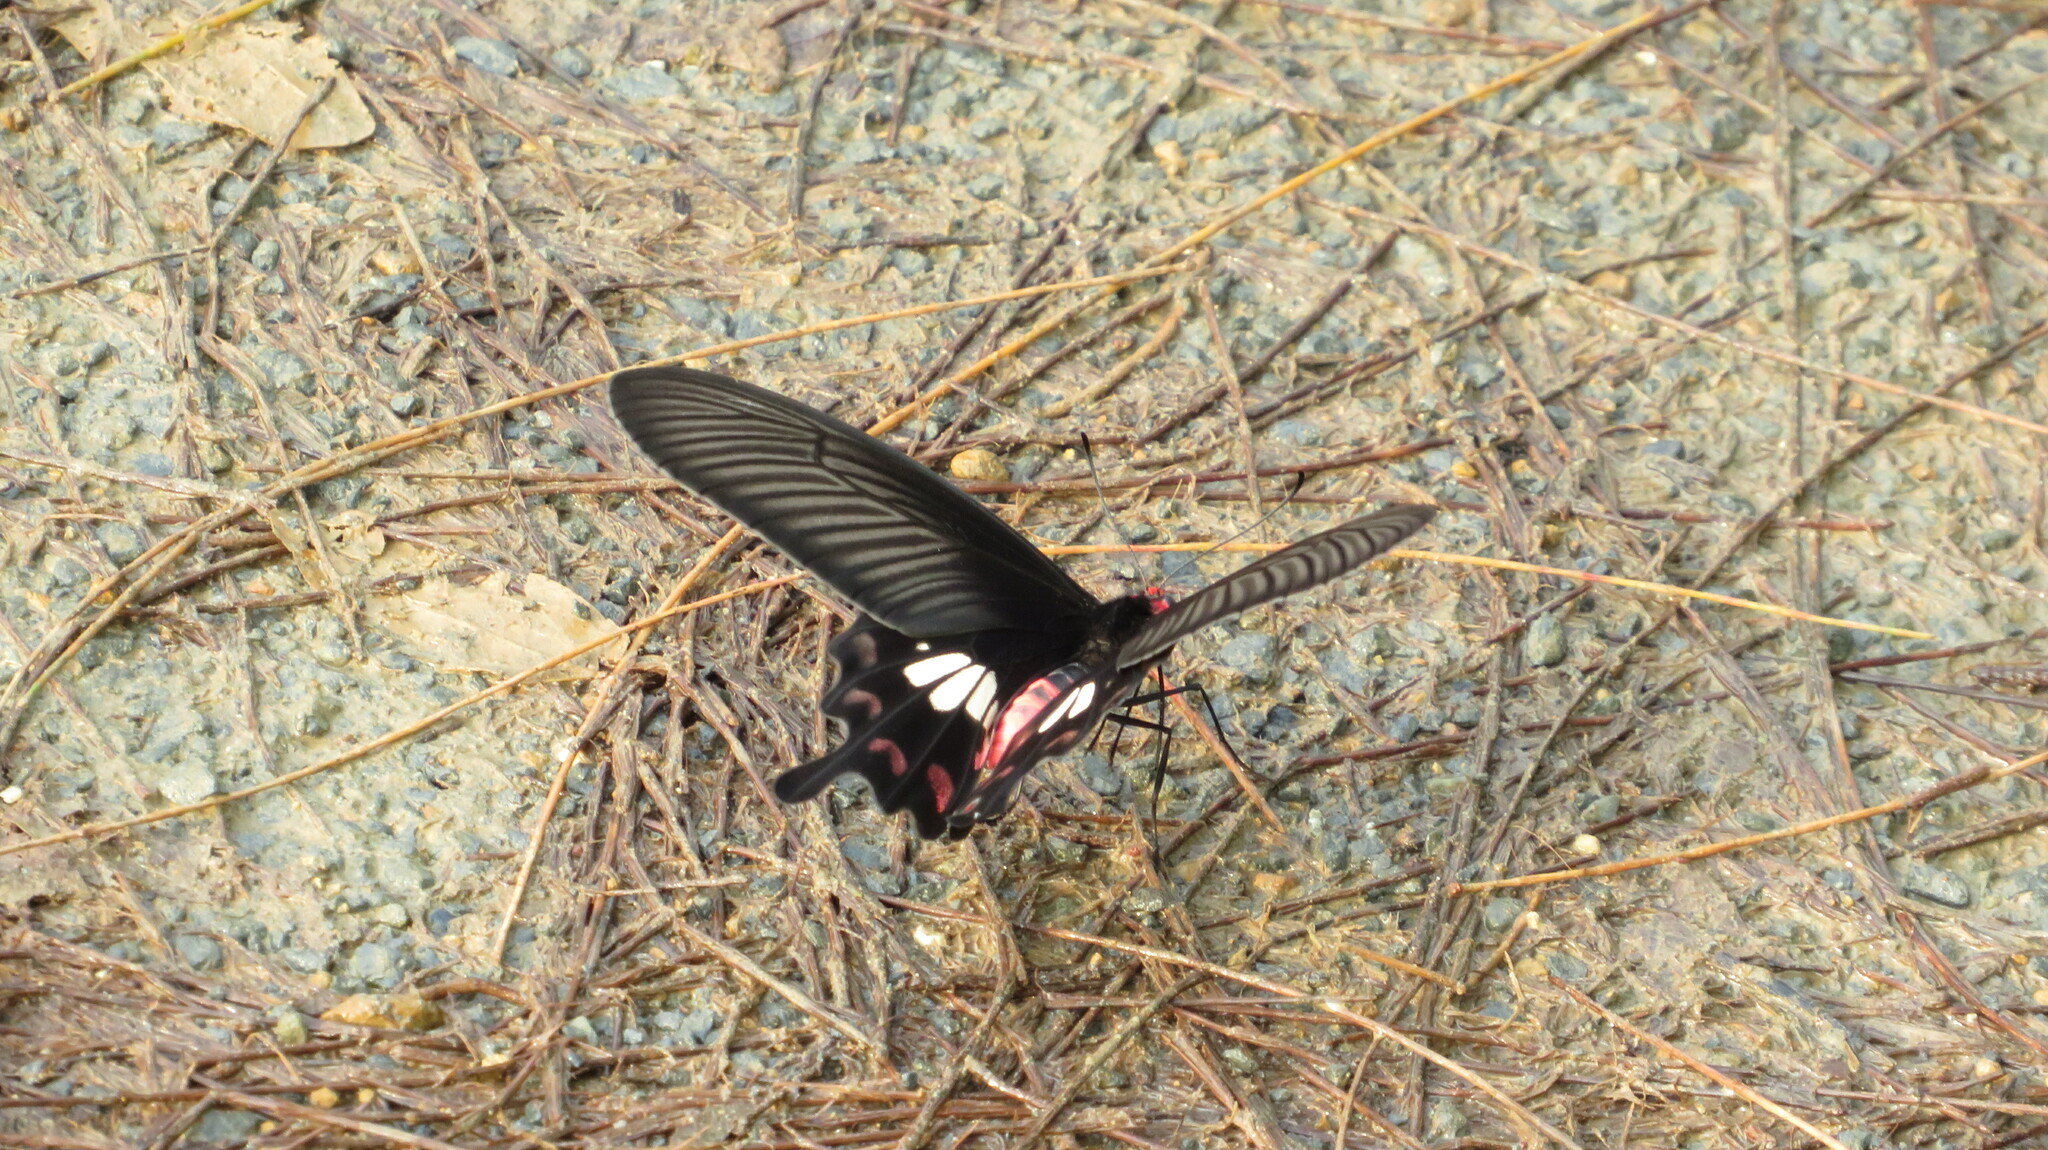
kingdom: Animalia
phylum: Arthropoda
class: Insecta
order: Lepidoptera
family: Papilionidae
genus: Pachliopta
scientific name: Pachliopta aristolochiae
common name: Common rose
